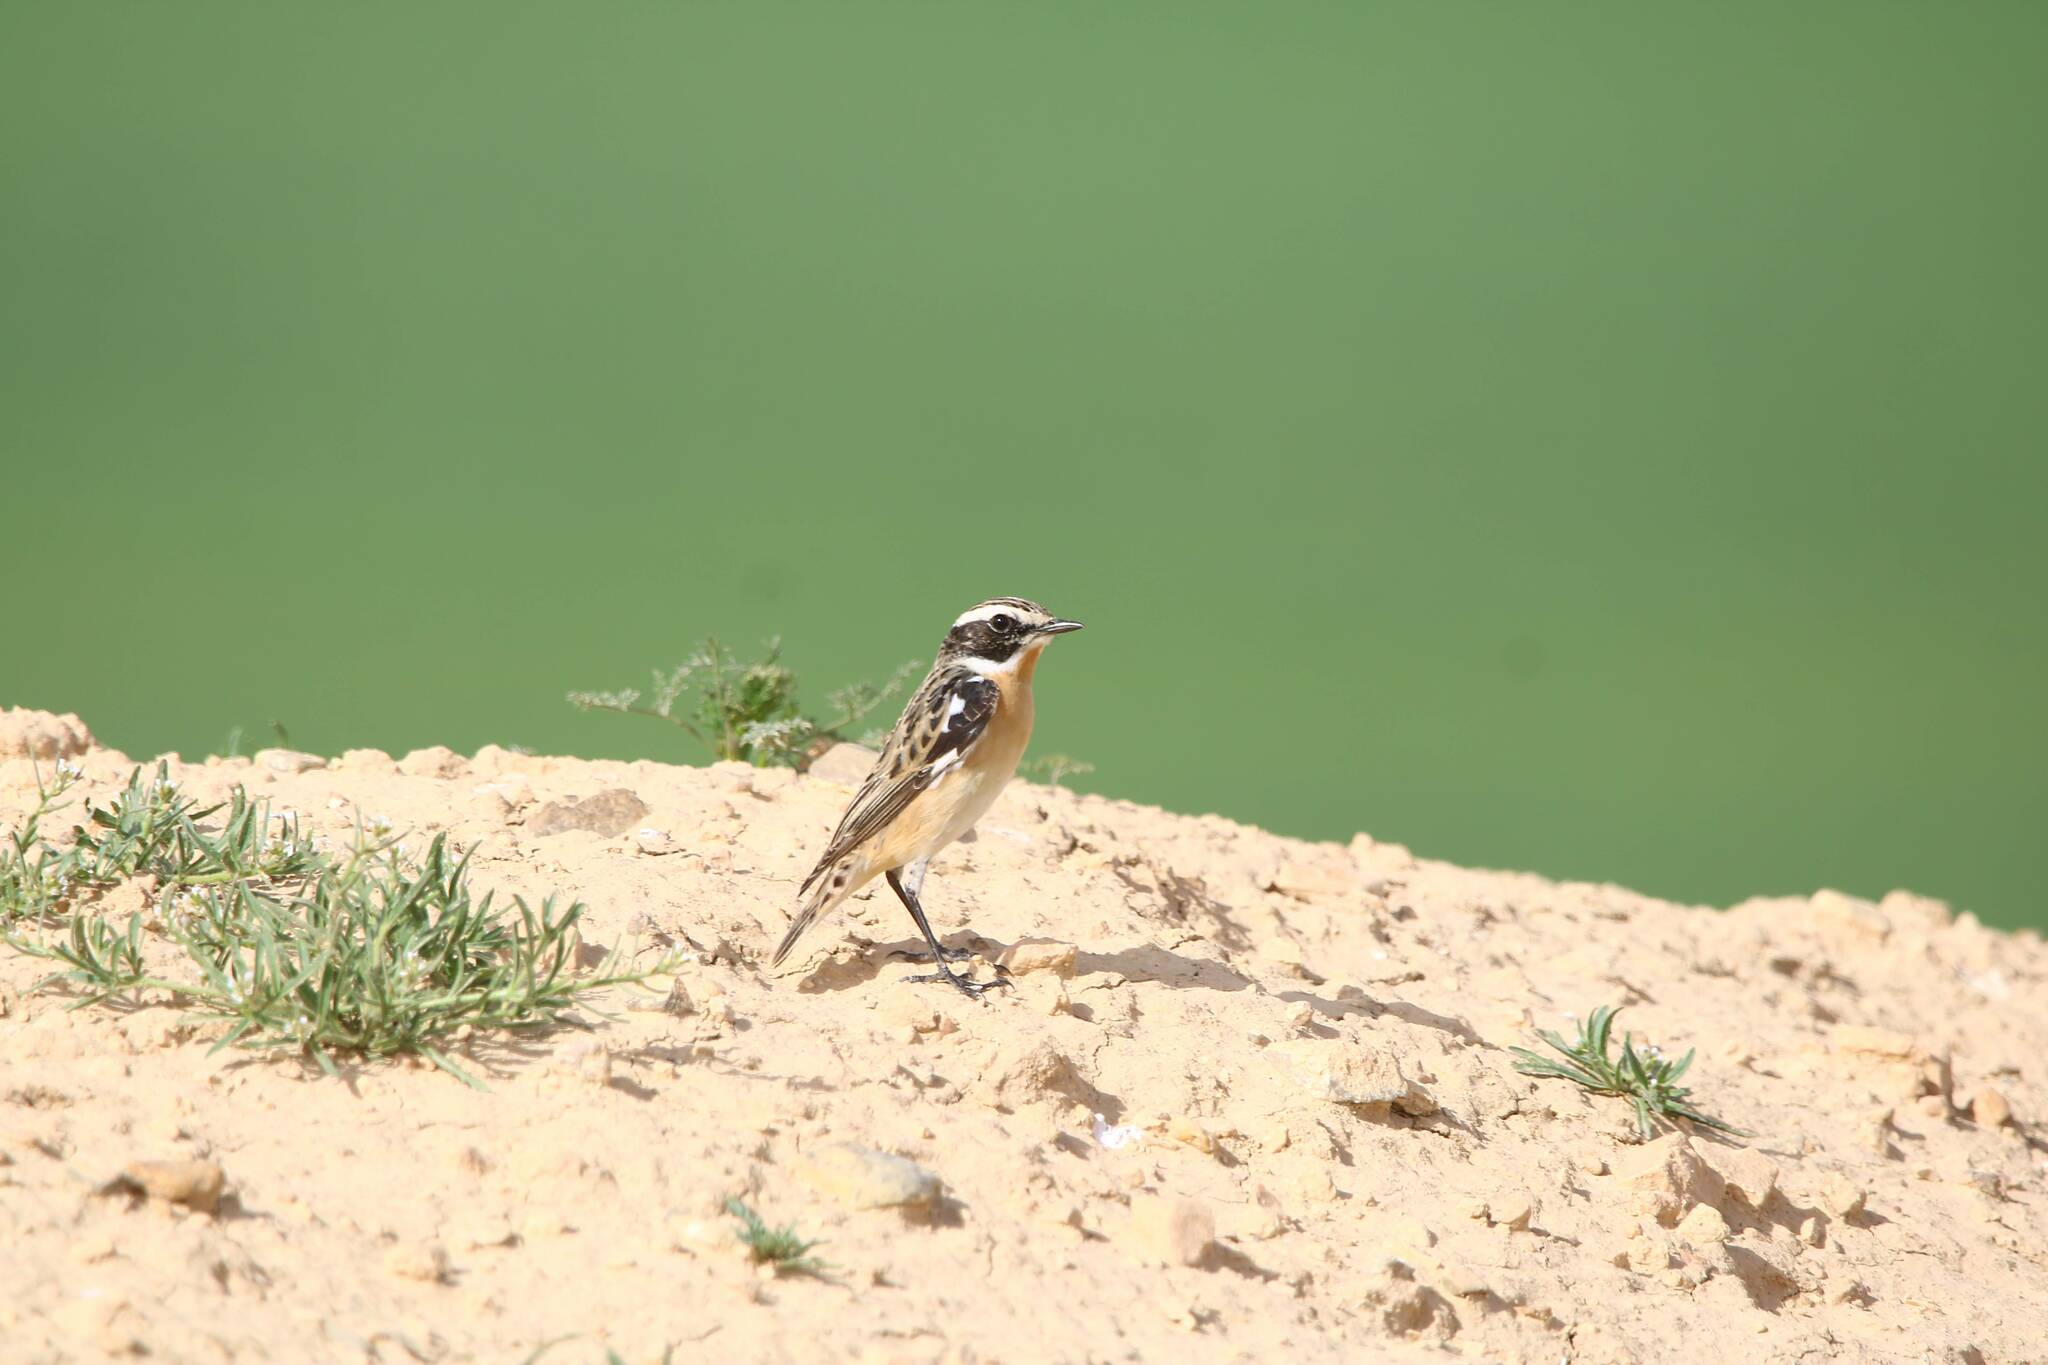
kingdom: Animalia
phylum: Chordata
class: Aves
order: Passeriformes
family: Muscicapidae
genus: Saxicola
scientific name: Saxicola rubetra
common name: Whinchat
